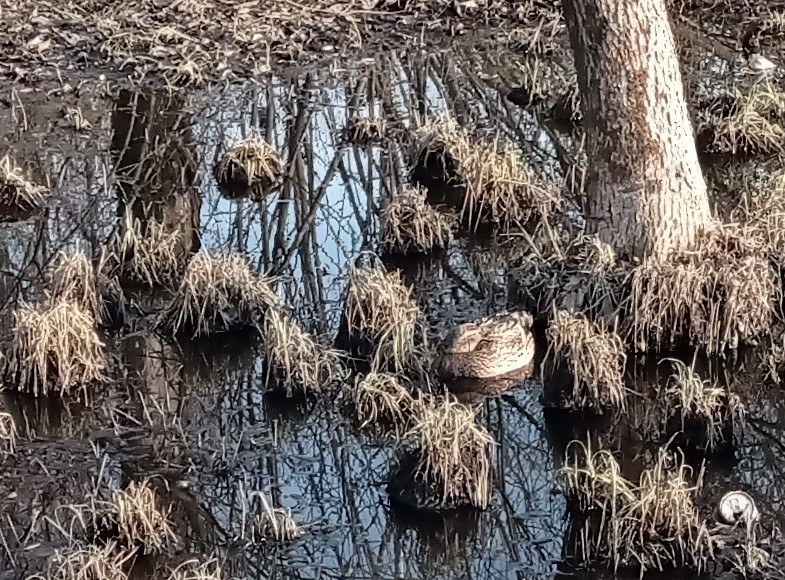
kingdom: Animalia
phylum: Chordata
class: Aves
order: Anseriformes
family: Anatidae
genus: Anas
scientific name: Anas platyrhynchos
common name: Mallard
